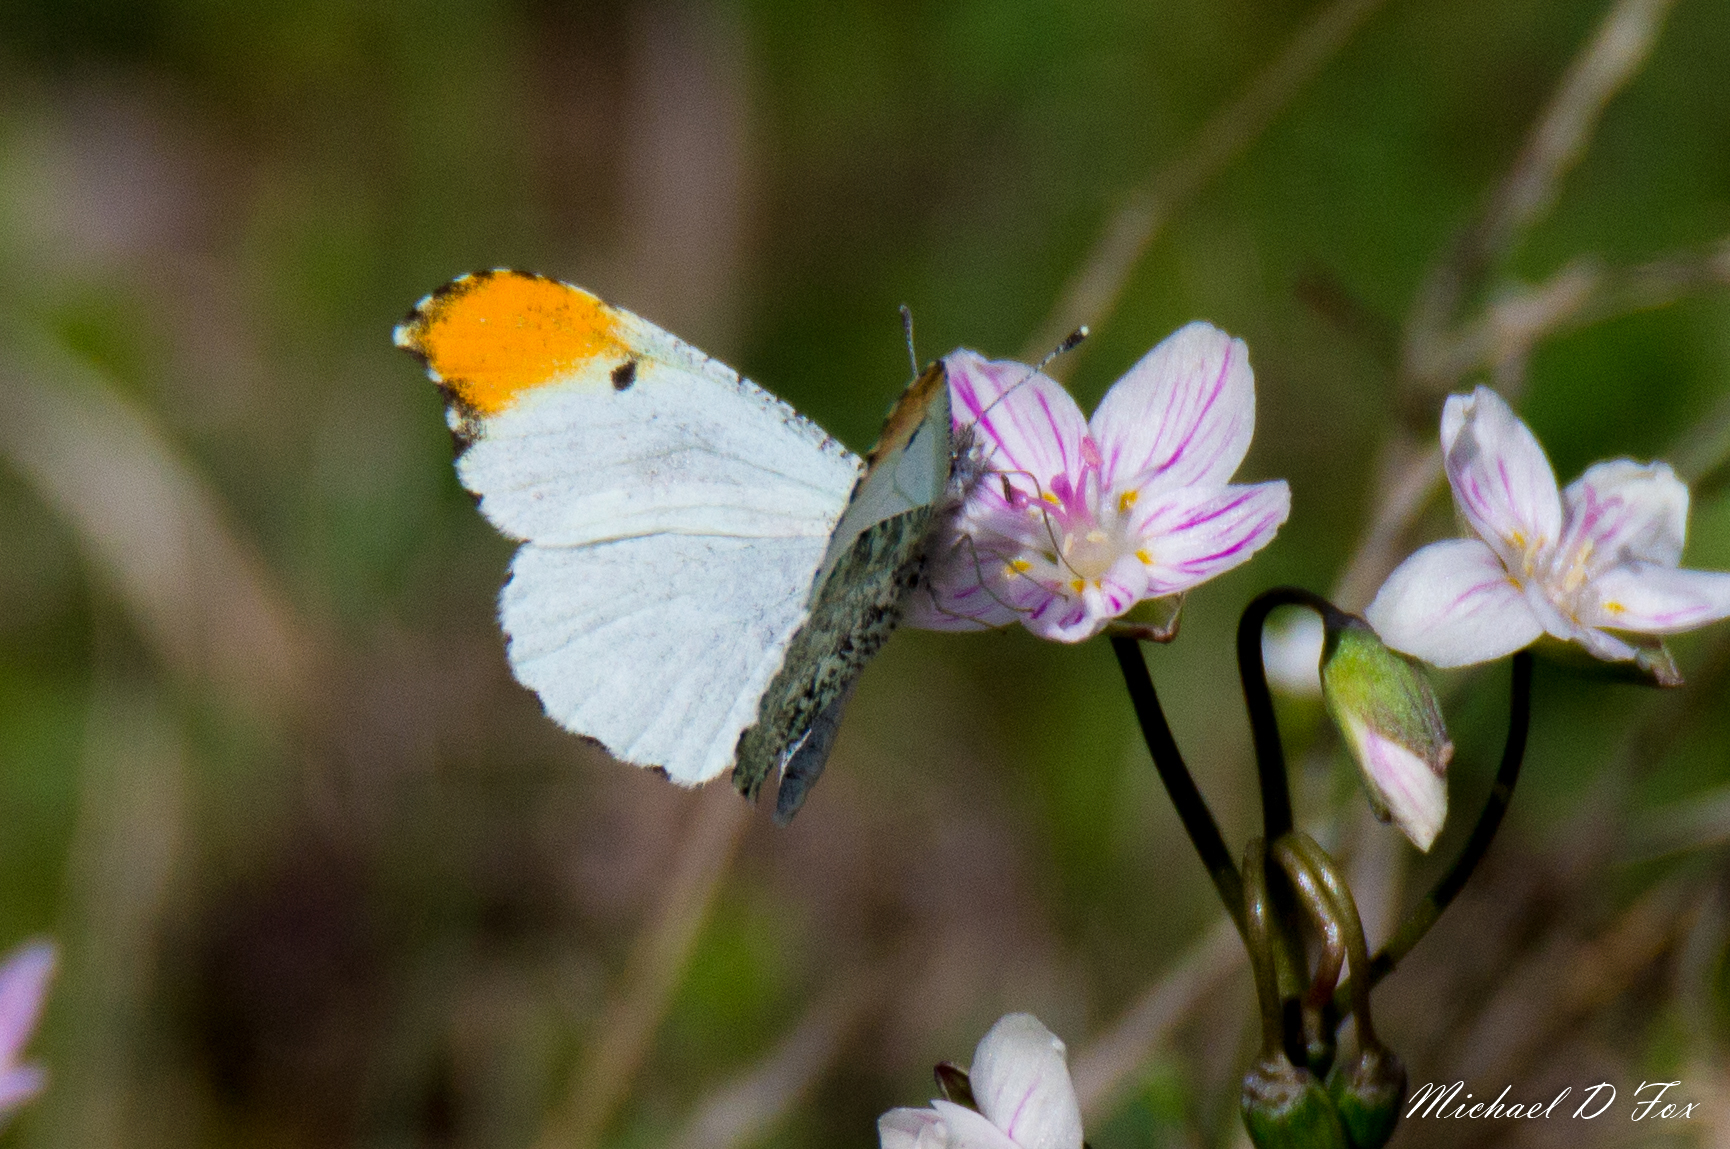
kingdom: Animalia
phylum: Arthropoda
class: Insecta
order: Lepidoptera
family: Pieridae
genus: Anthocharis
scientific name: Anthocharis midea
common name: Falcate orangetip
